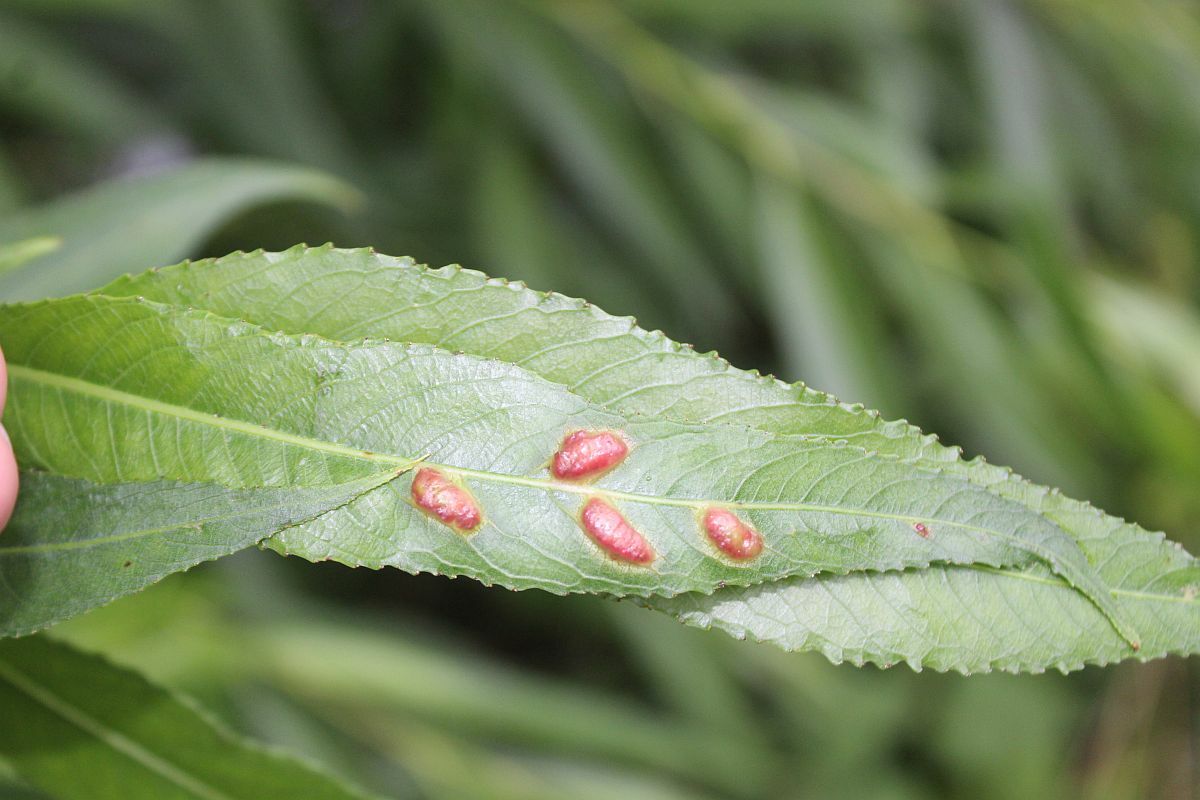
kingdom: Animalia
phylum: Arthropoda
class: Insecta
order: Hymenoptera
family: Tenthredinidae
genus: Pontania
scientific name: Pontania proxima
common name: Common sawfly
